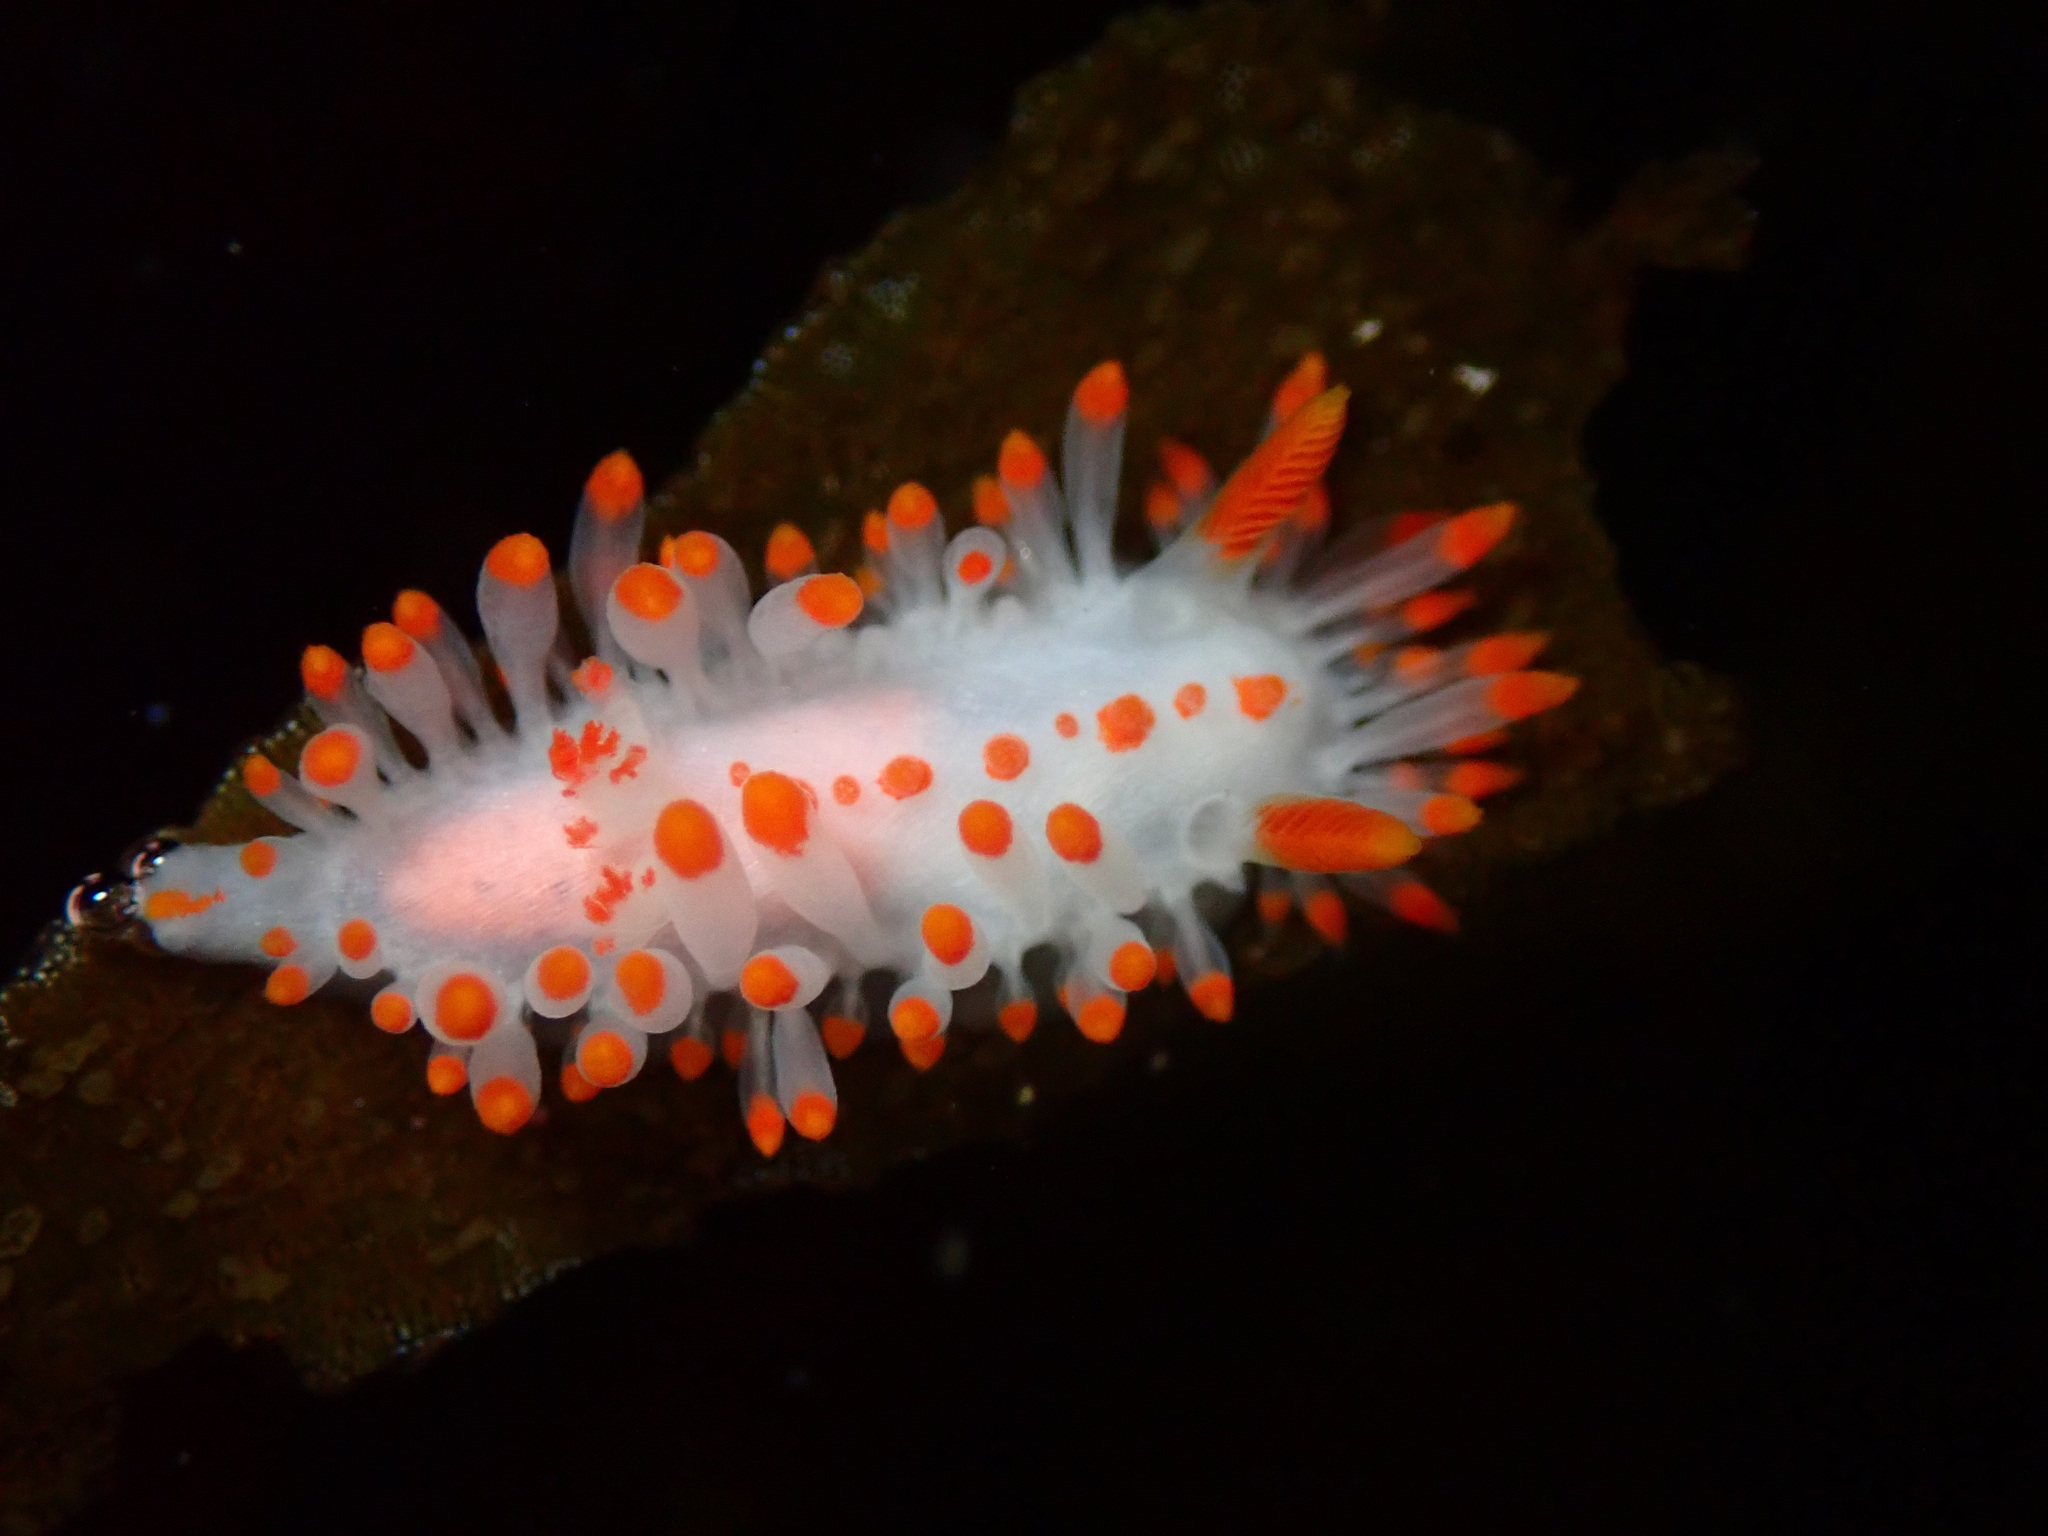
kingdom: Animalia
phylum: Mollusca
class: Gastropoda
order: Nudibranchia
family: Polyceridae
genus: Limacia
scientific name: Limacia mcdonaldi
